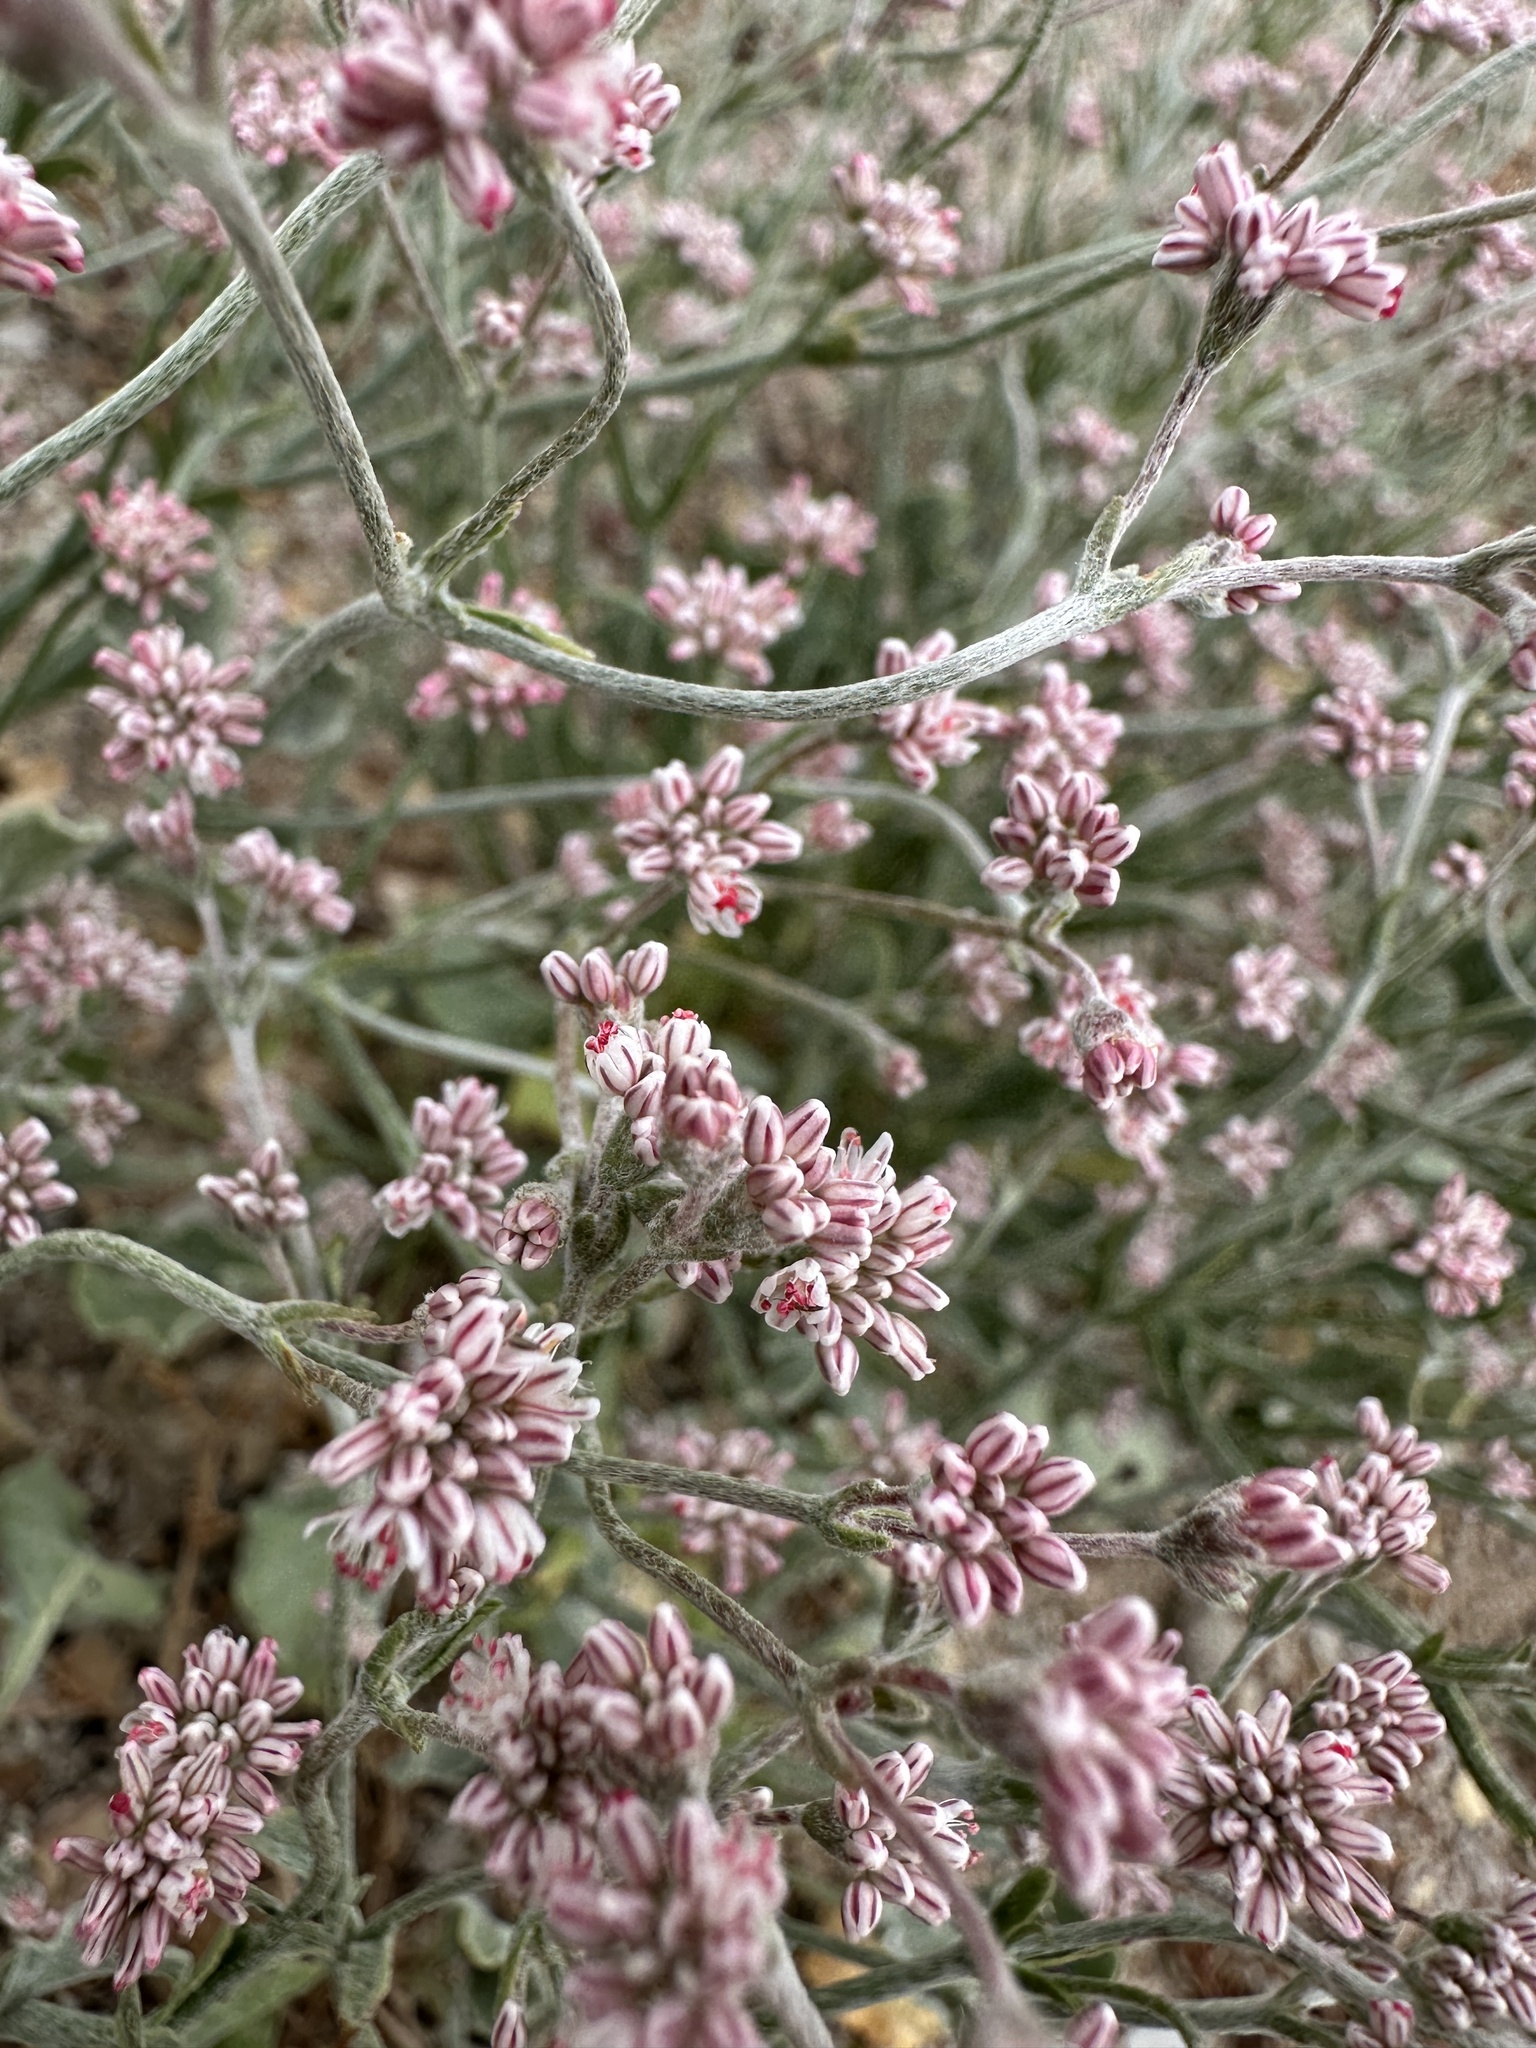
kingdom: Plantae
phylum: Tracheophyta
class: Magnoliopsida
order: Caryophyllales
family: Polygonaceae
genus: Eriogonum
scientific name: Eriogonum temblorense
